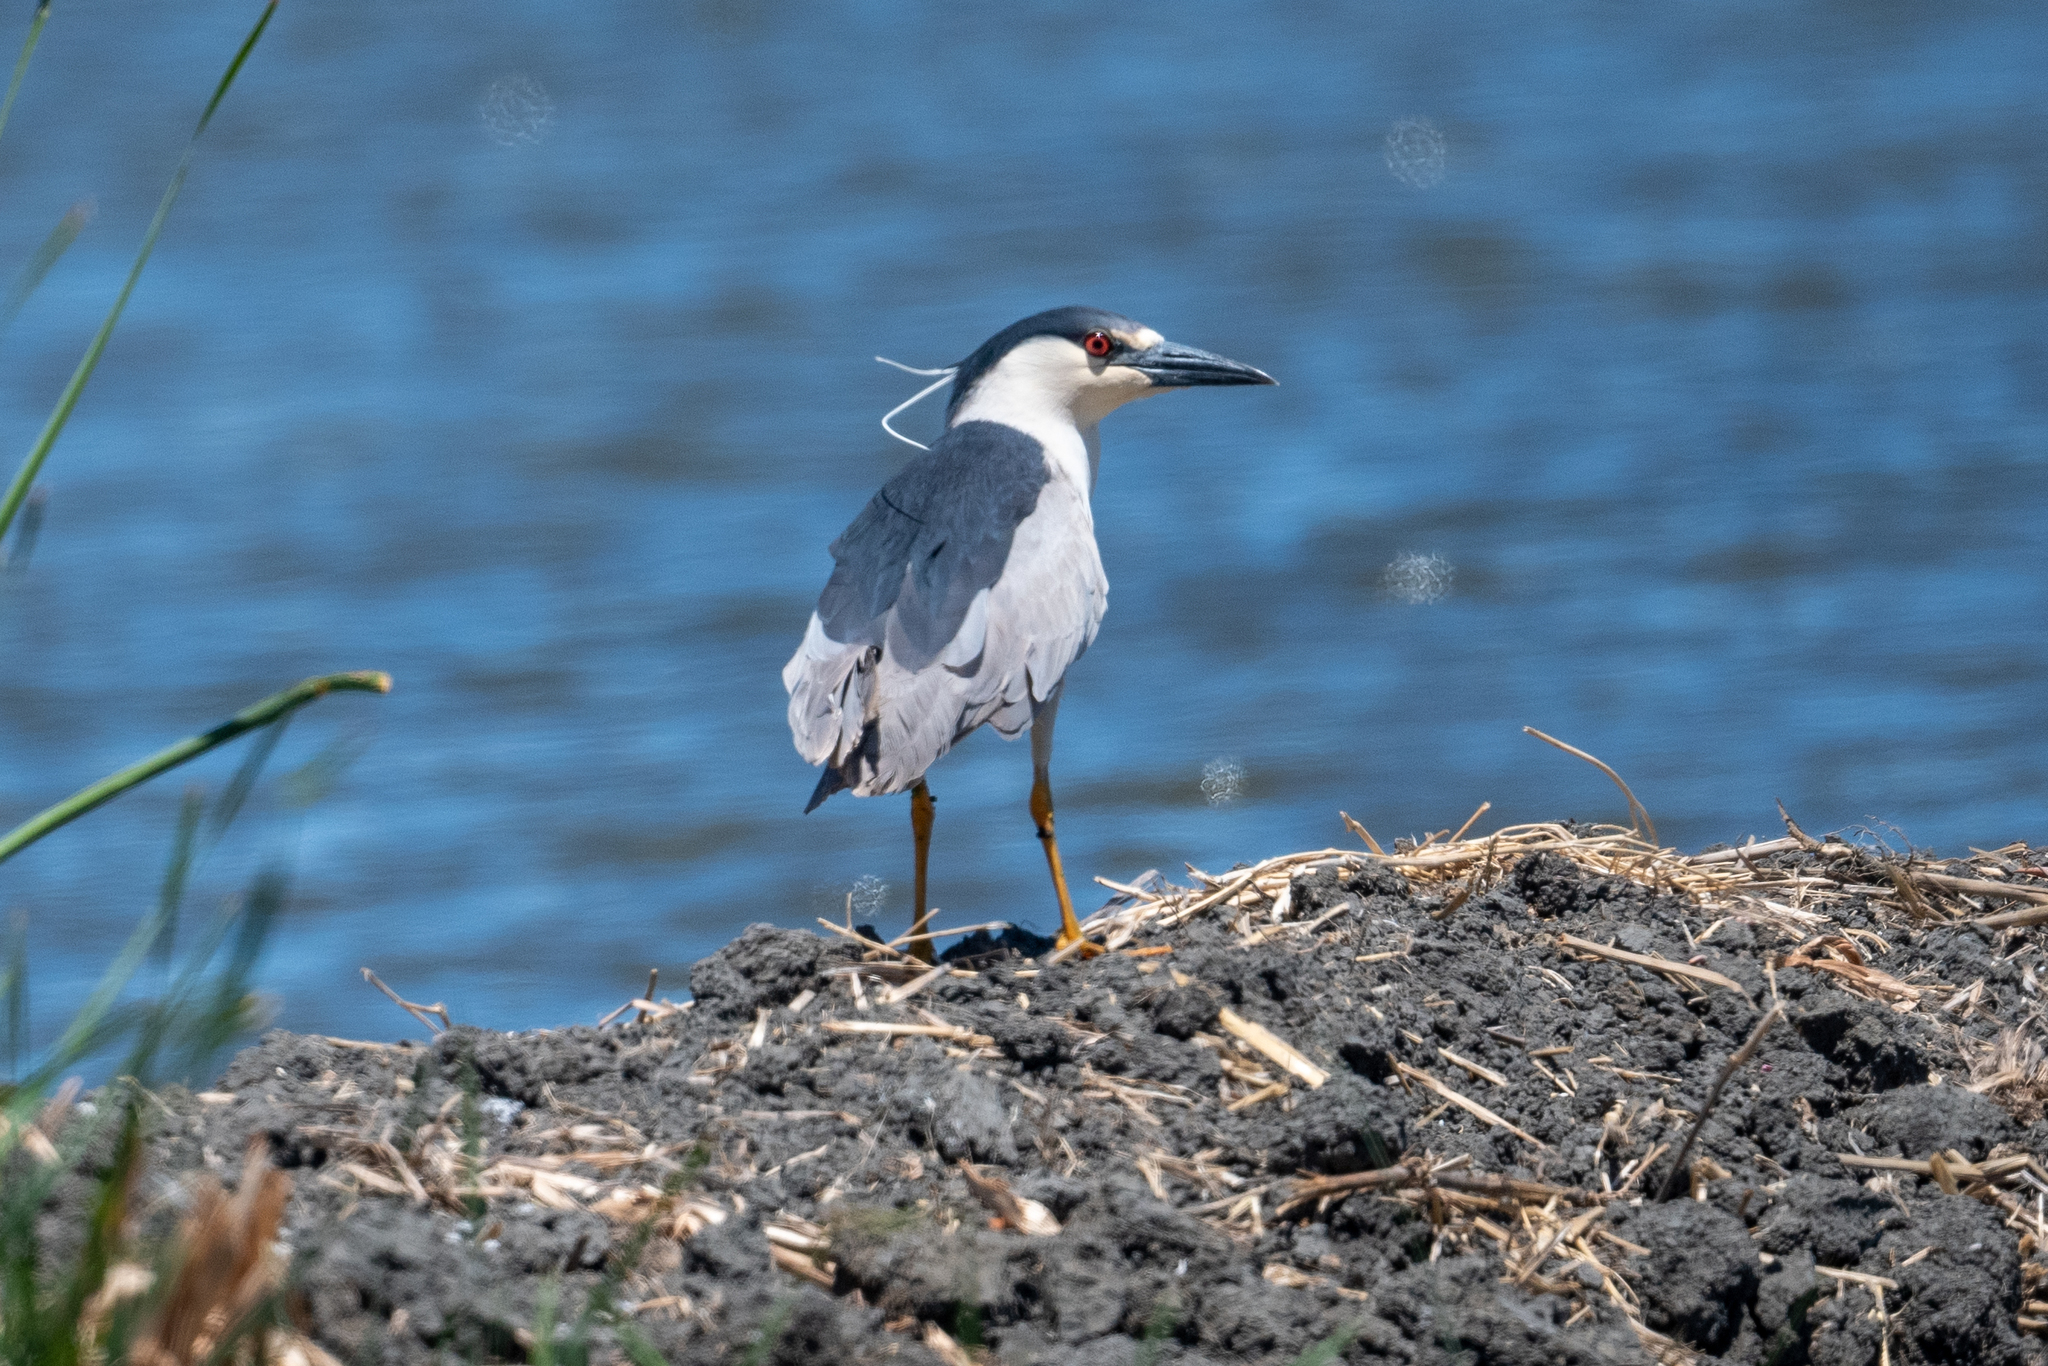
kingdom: Animalia
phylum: Chordata
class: Aves
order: Pelecaniformes
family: Ardeidae
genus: Nycticorax
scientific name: Nycticorax nycticorax
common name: Black-crowned night heron
